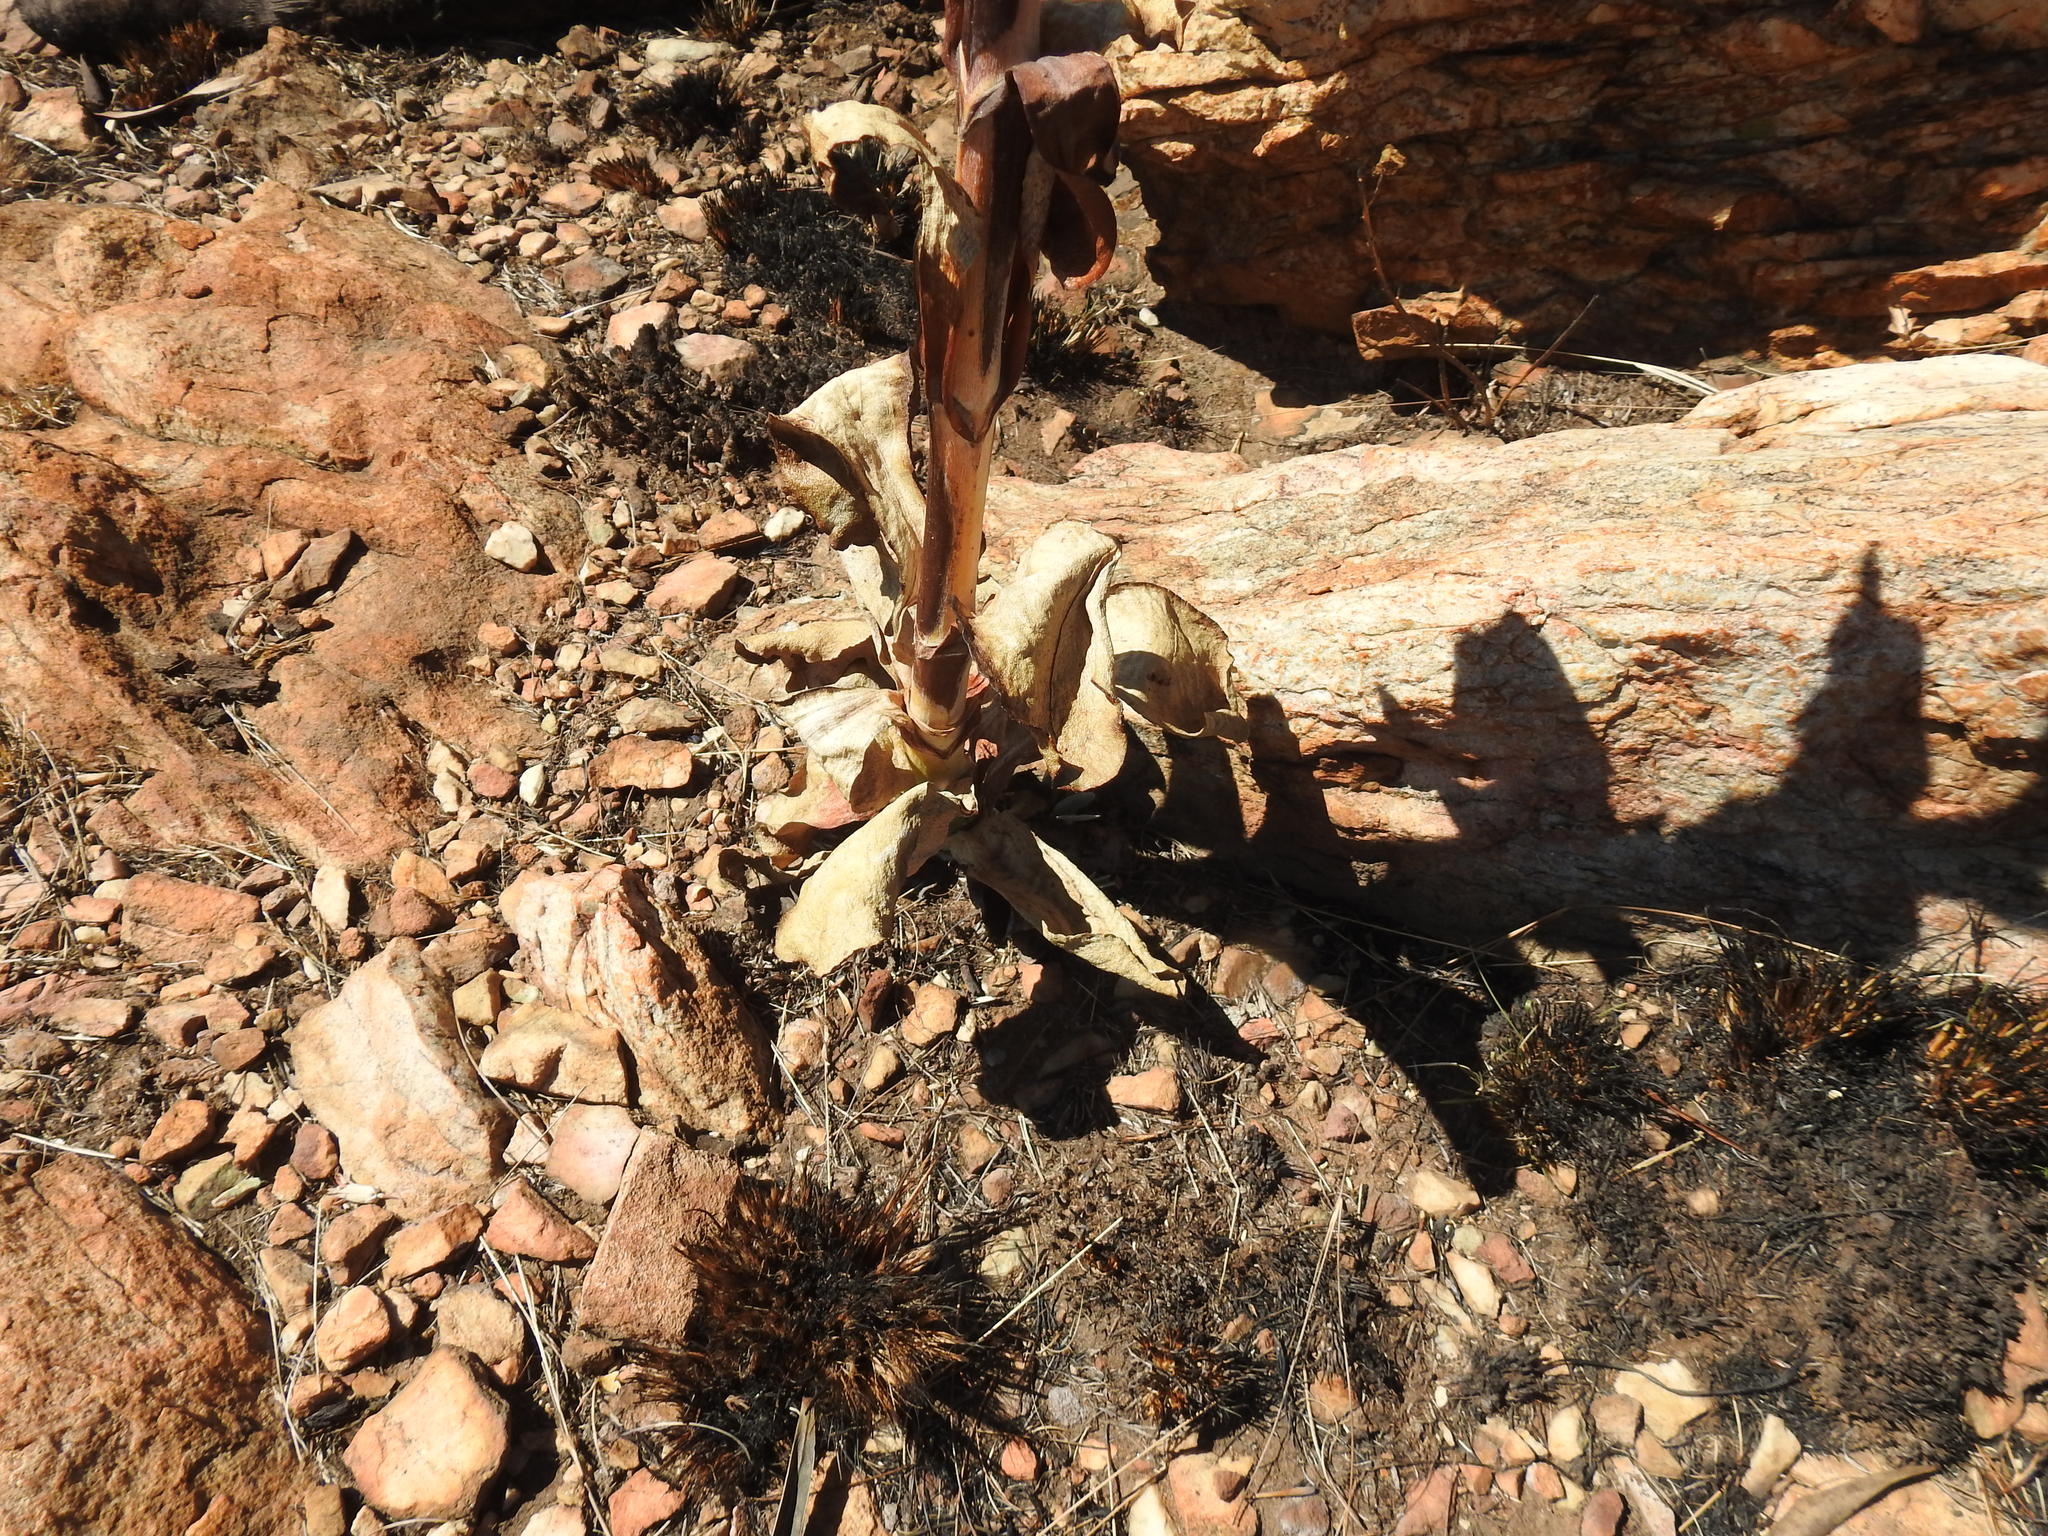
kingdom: Plantae
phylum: Tracheophyta
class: Magnoliopsida
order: Saxifragales
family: Crassulaceae
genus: Kalanchoe
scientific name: Kalanchoe thyrsiflora
